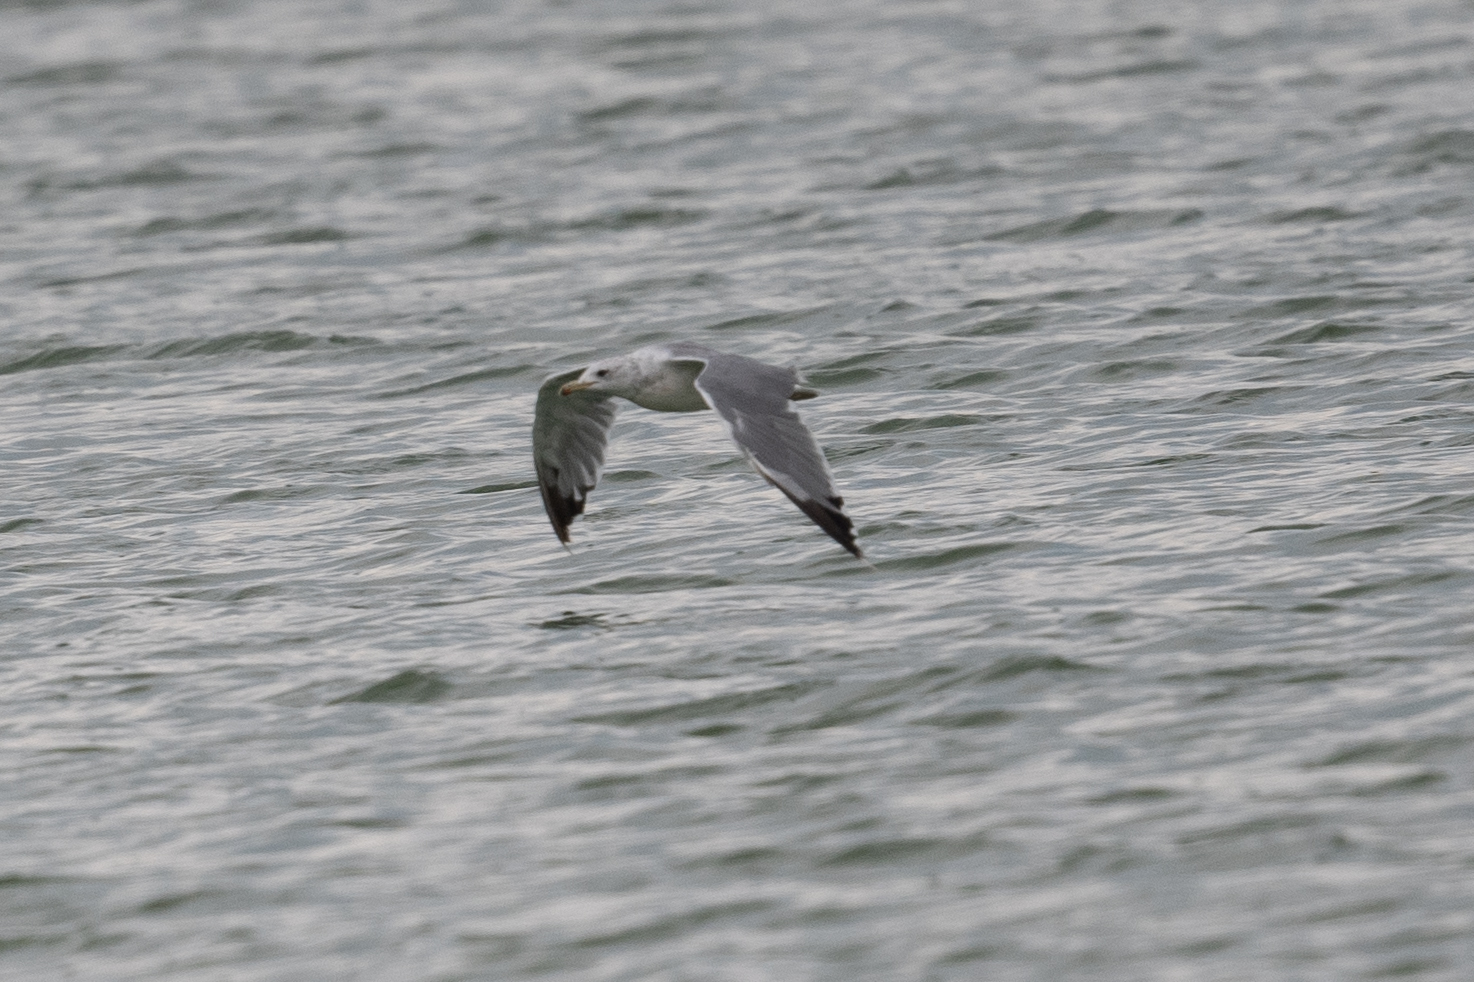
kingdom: Animalia
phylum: Chordata
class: Aves
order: Charadriiformes
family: Laridae
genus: Larus
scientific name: Larus californicus
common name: California gull
